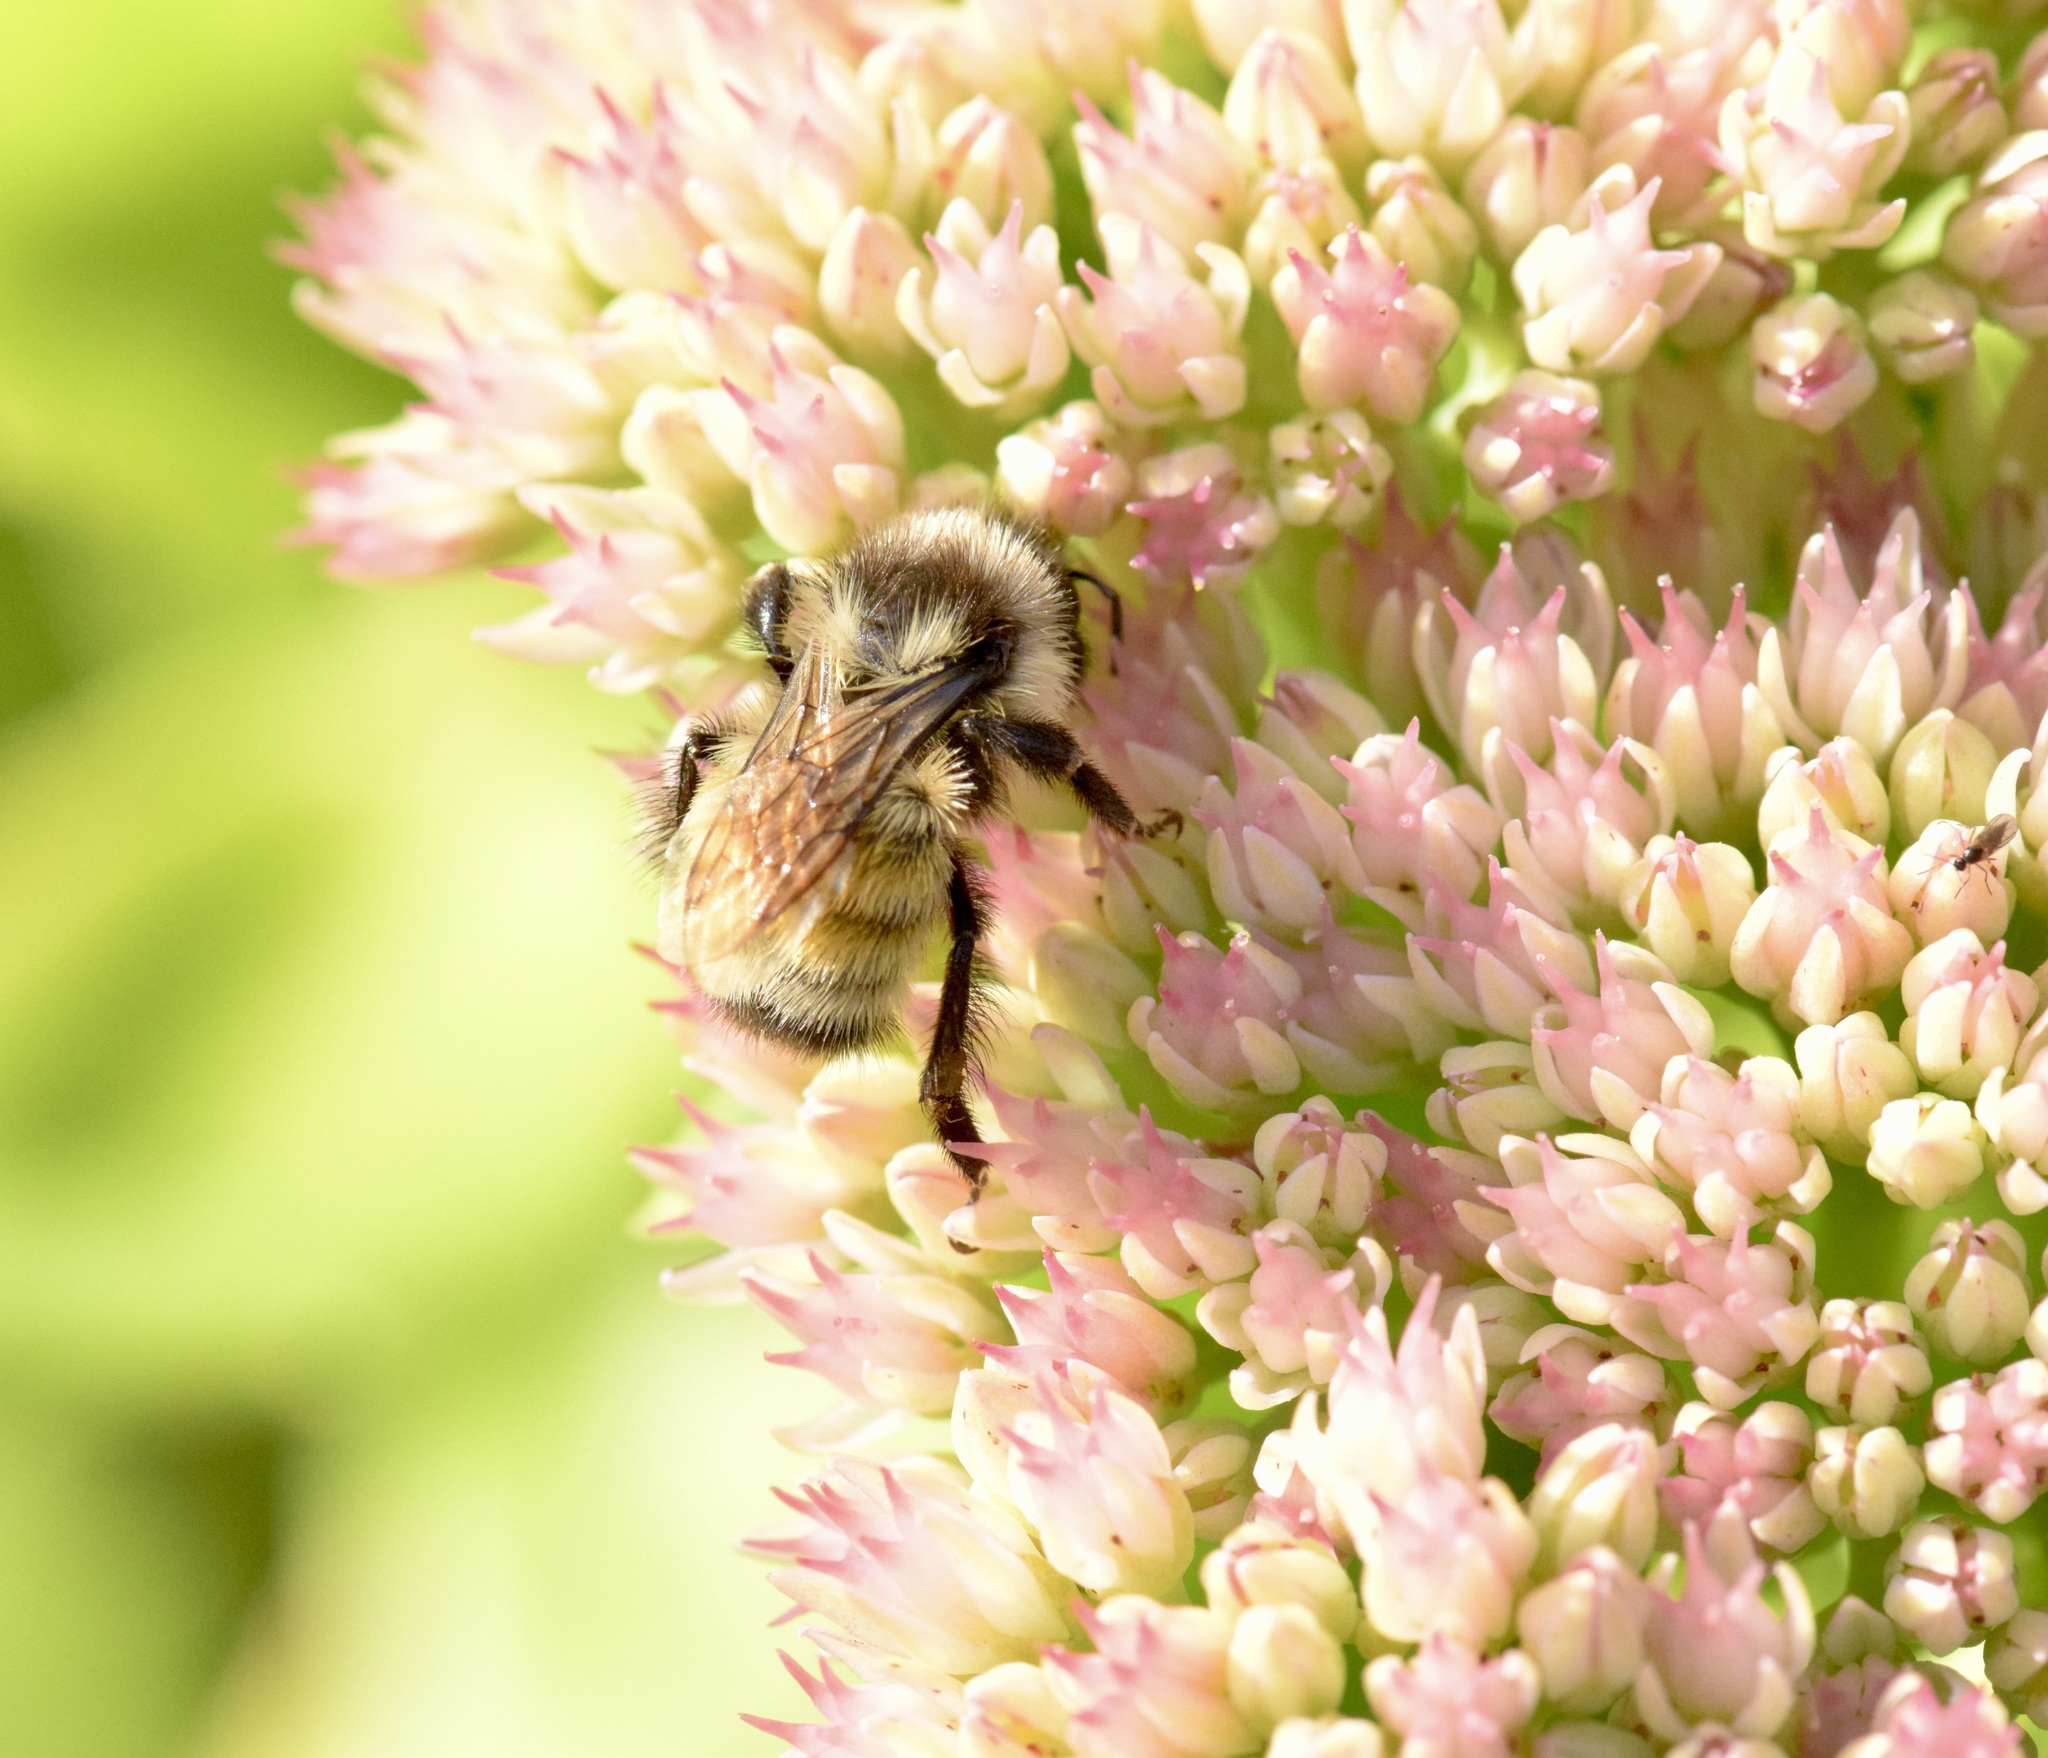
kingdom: Animalia
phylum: Arthropoda
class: Insecta
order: Hymenoptera
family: Apidae
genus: Bombus
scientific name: Bombus ternarius
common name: Tri-colored bumble bee
